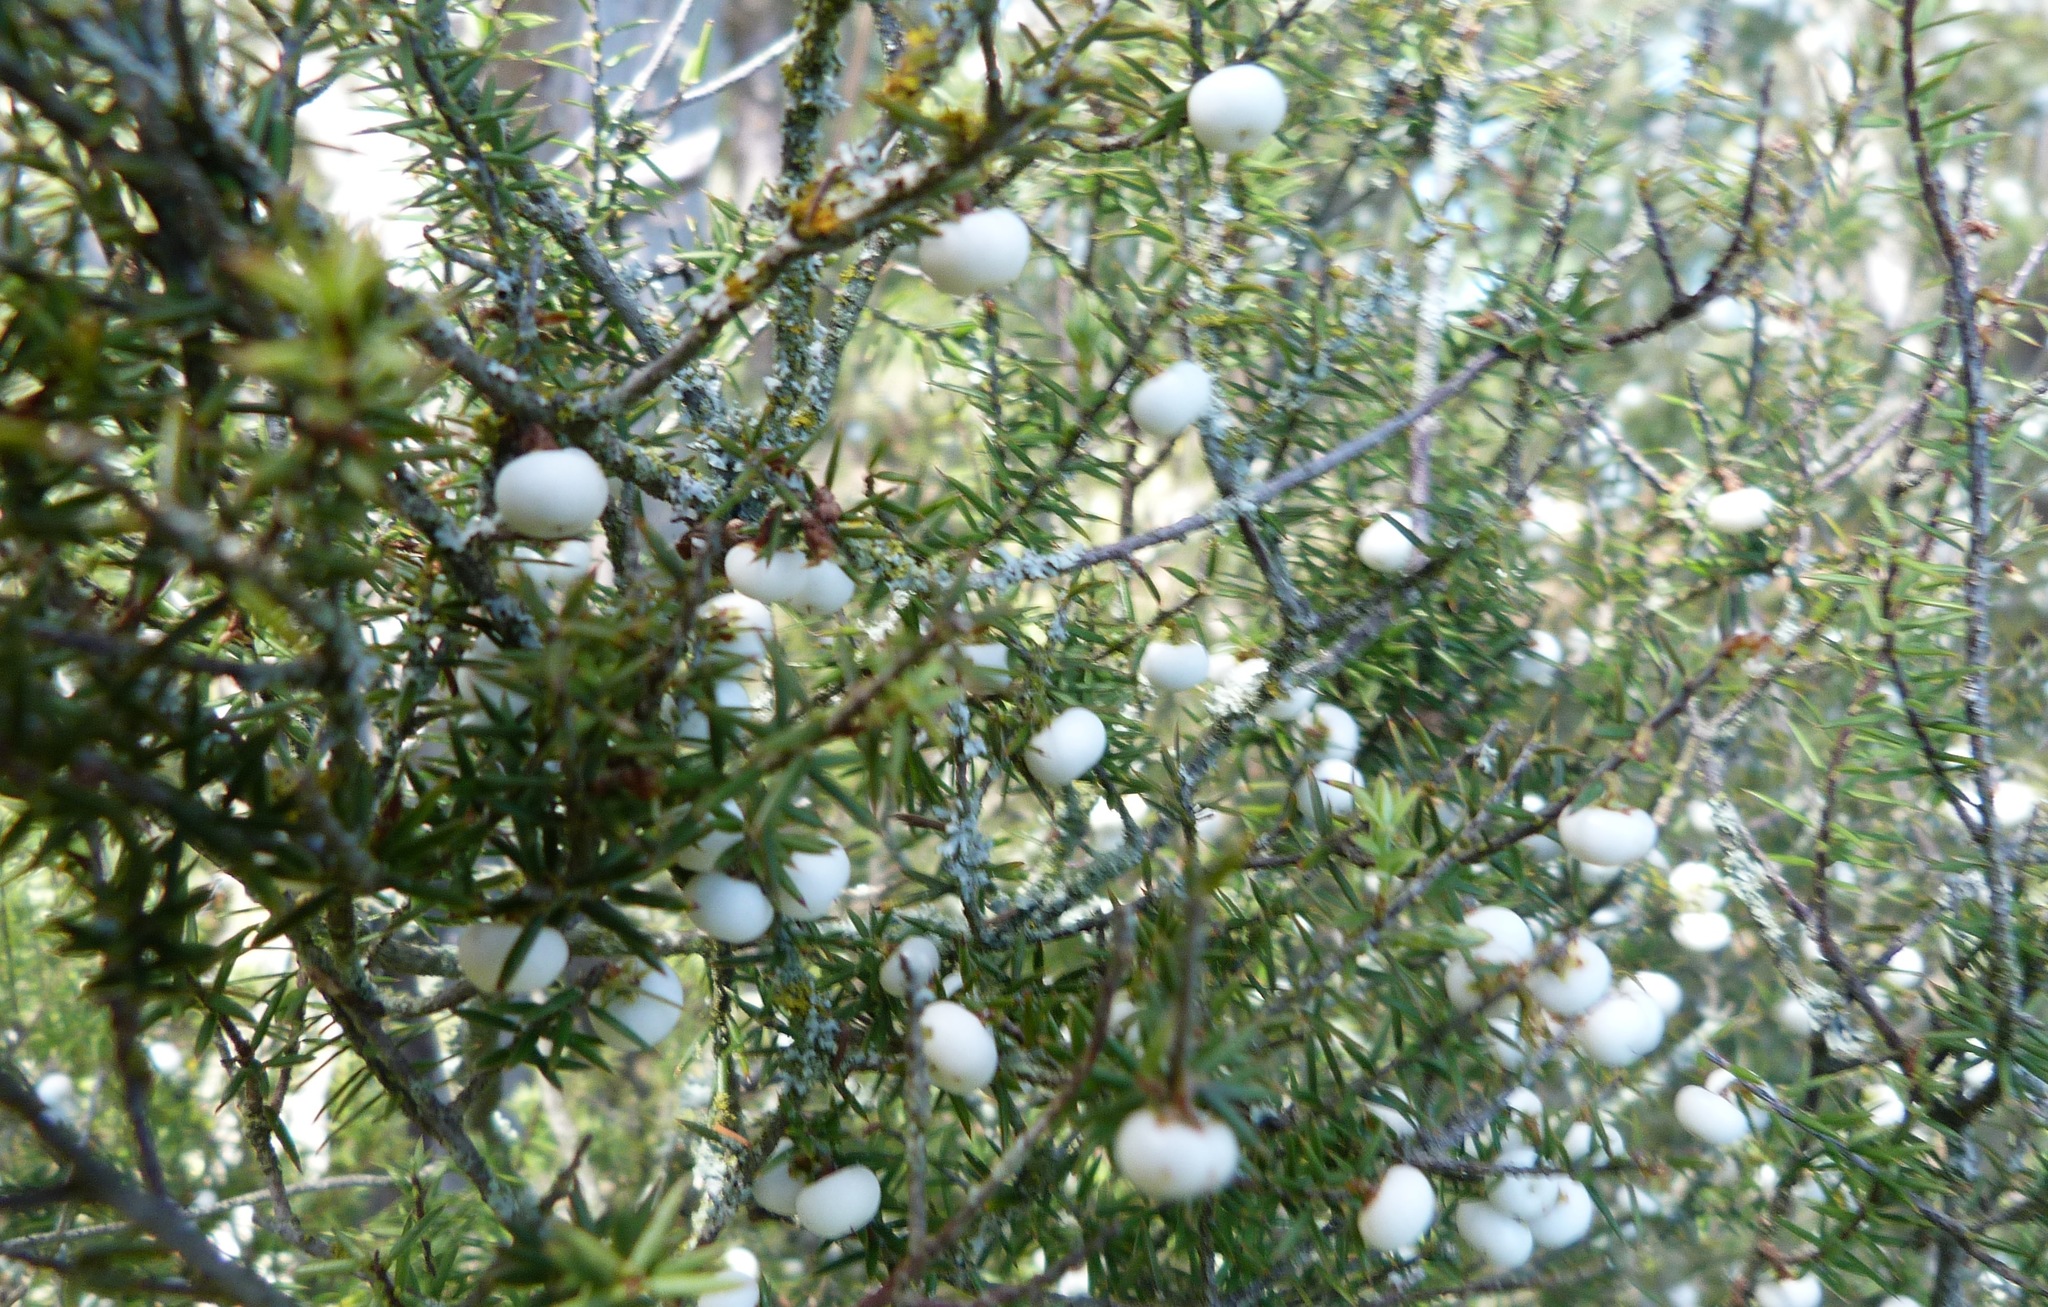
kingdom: Plantae
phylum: Tracheophyta
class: Magnoliopsida
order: Ericales
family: Ericaceae
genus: Leptecophylla
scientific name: Leptecophylla juniperina
